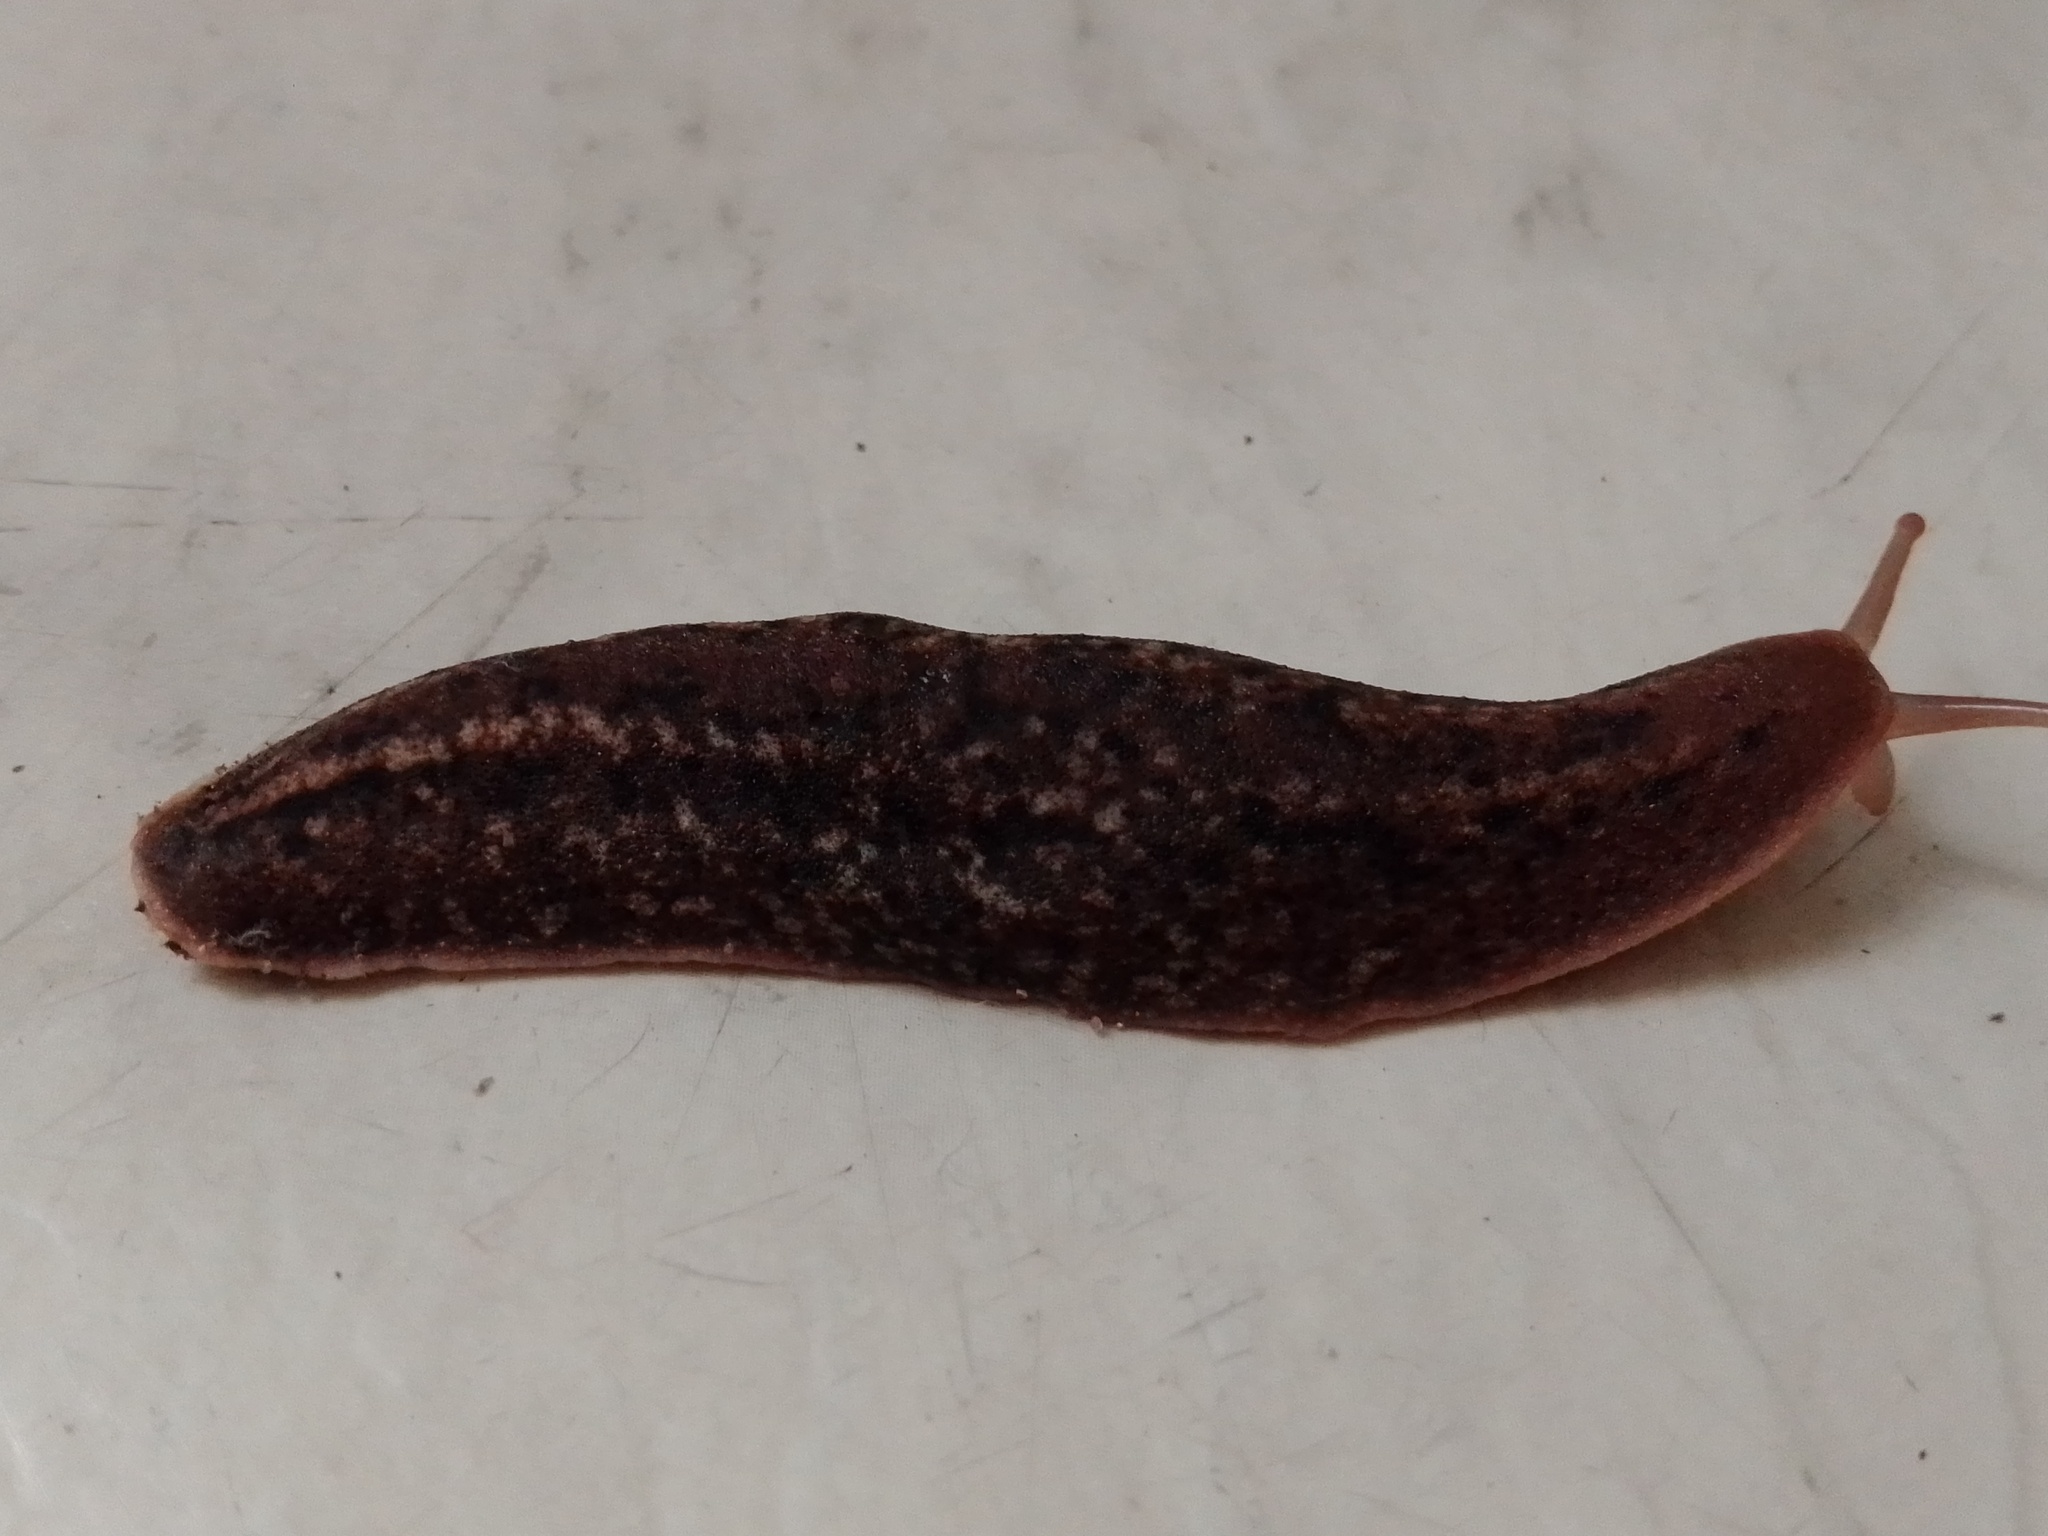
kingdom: Animalia
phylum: Mollusca
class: Gastropoda
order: Systellommatophora
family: Veronicellidae
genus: Phyllocaulis
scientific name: Phyllocaulis soleiformis
